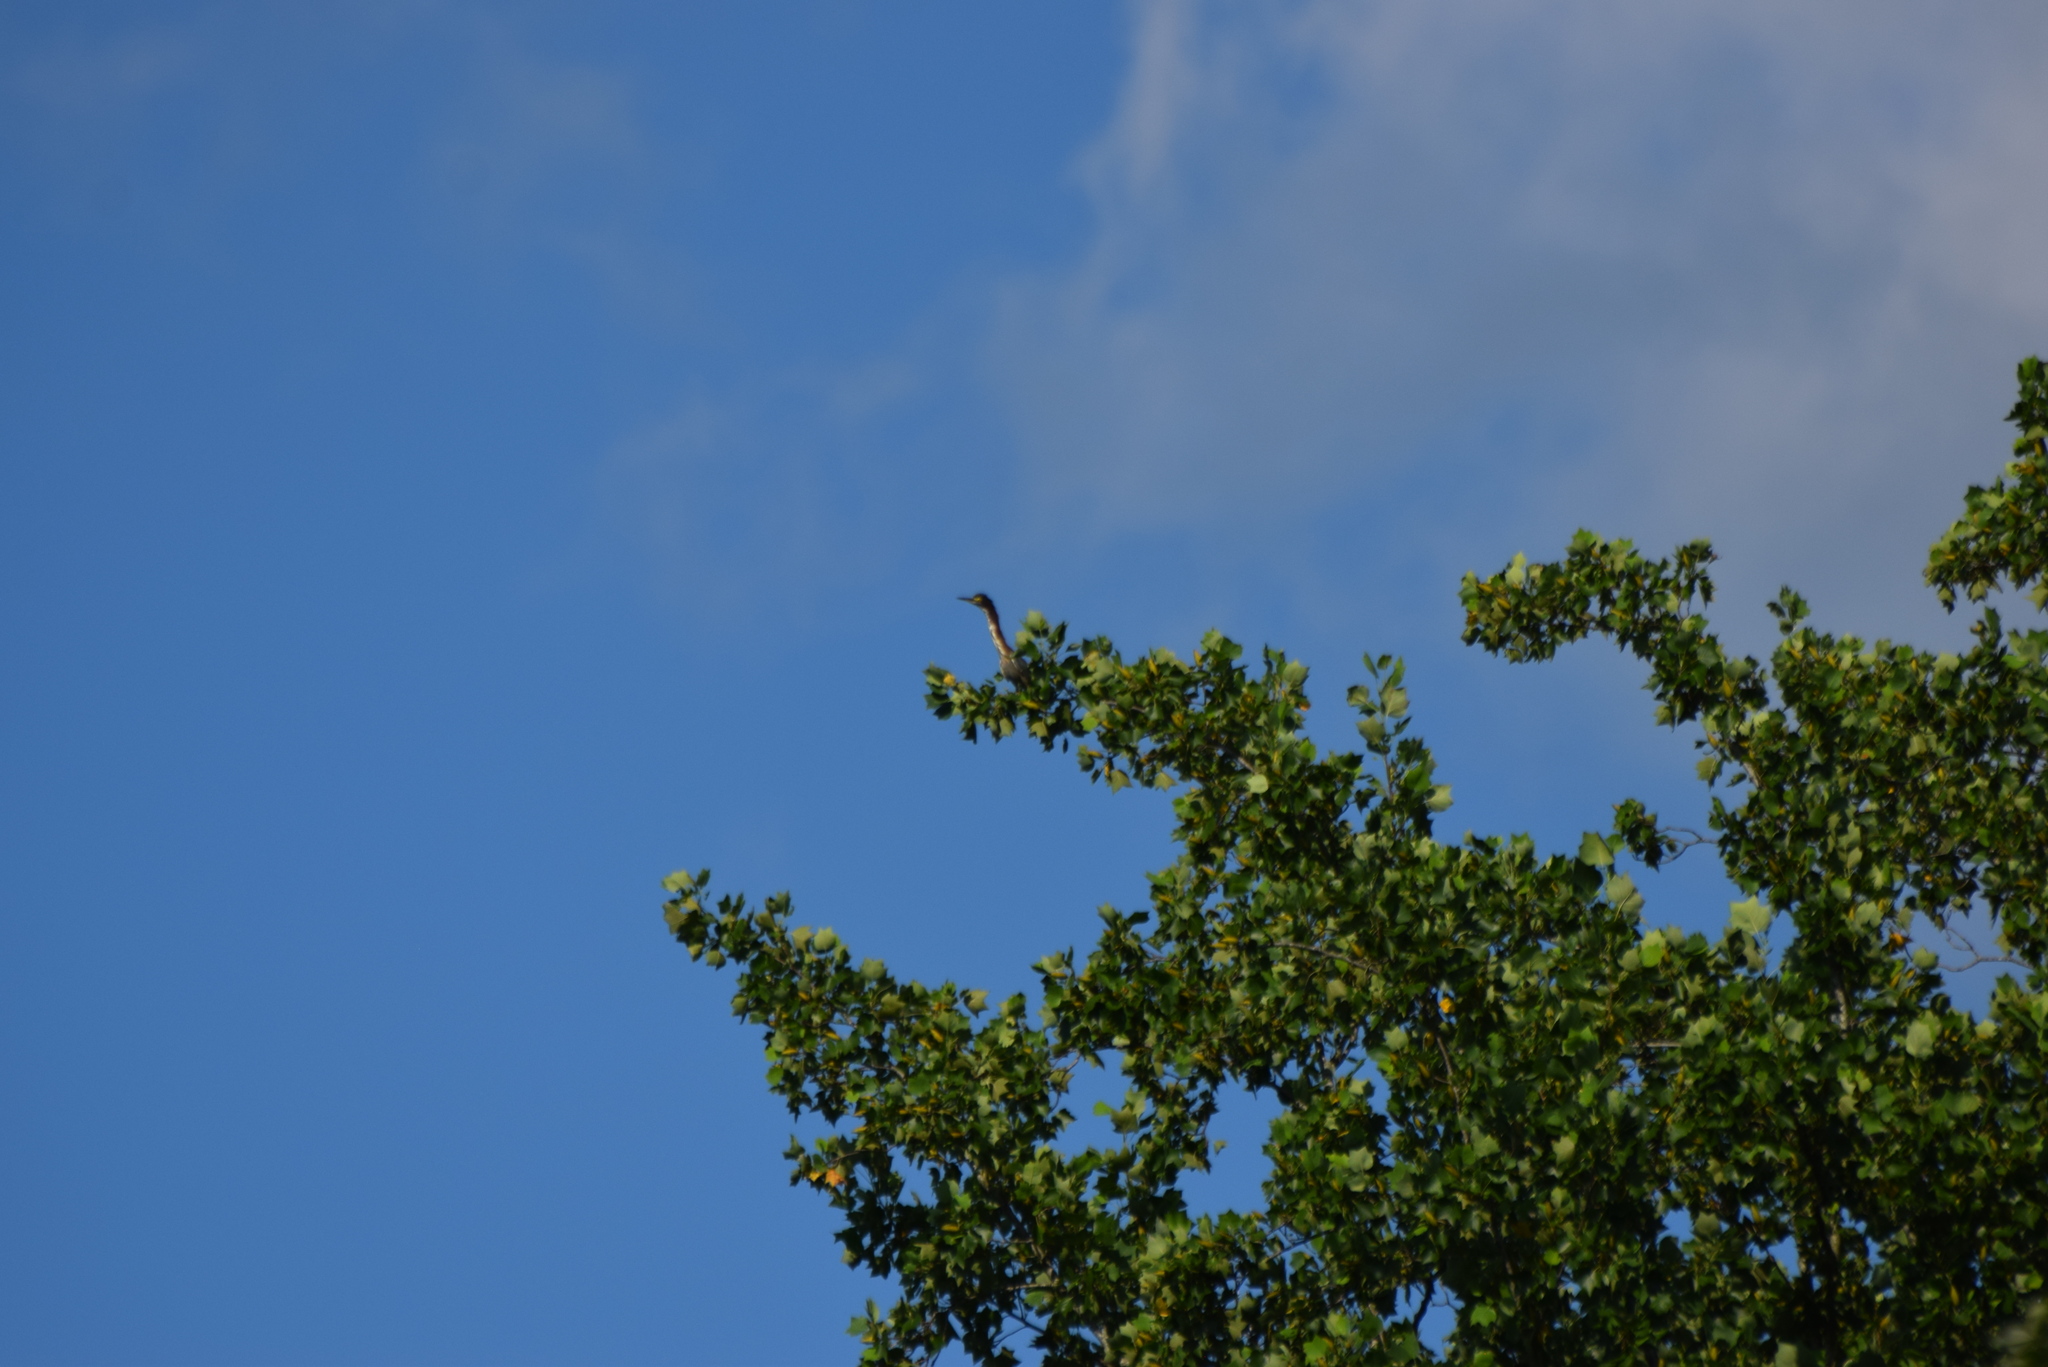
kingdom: Animalia
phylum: Chordata
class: Aves
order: Pelecaniformes
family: Ardeidae
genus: Butorides
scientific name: Butorides virescens
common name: Green heron
